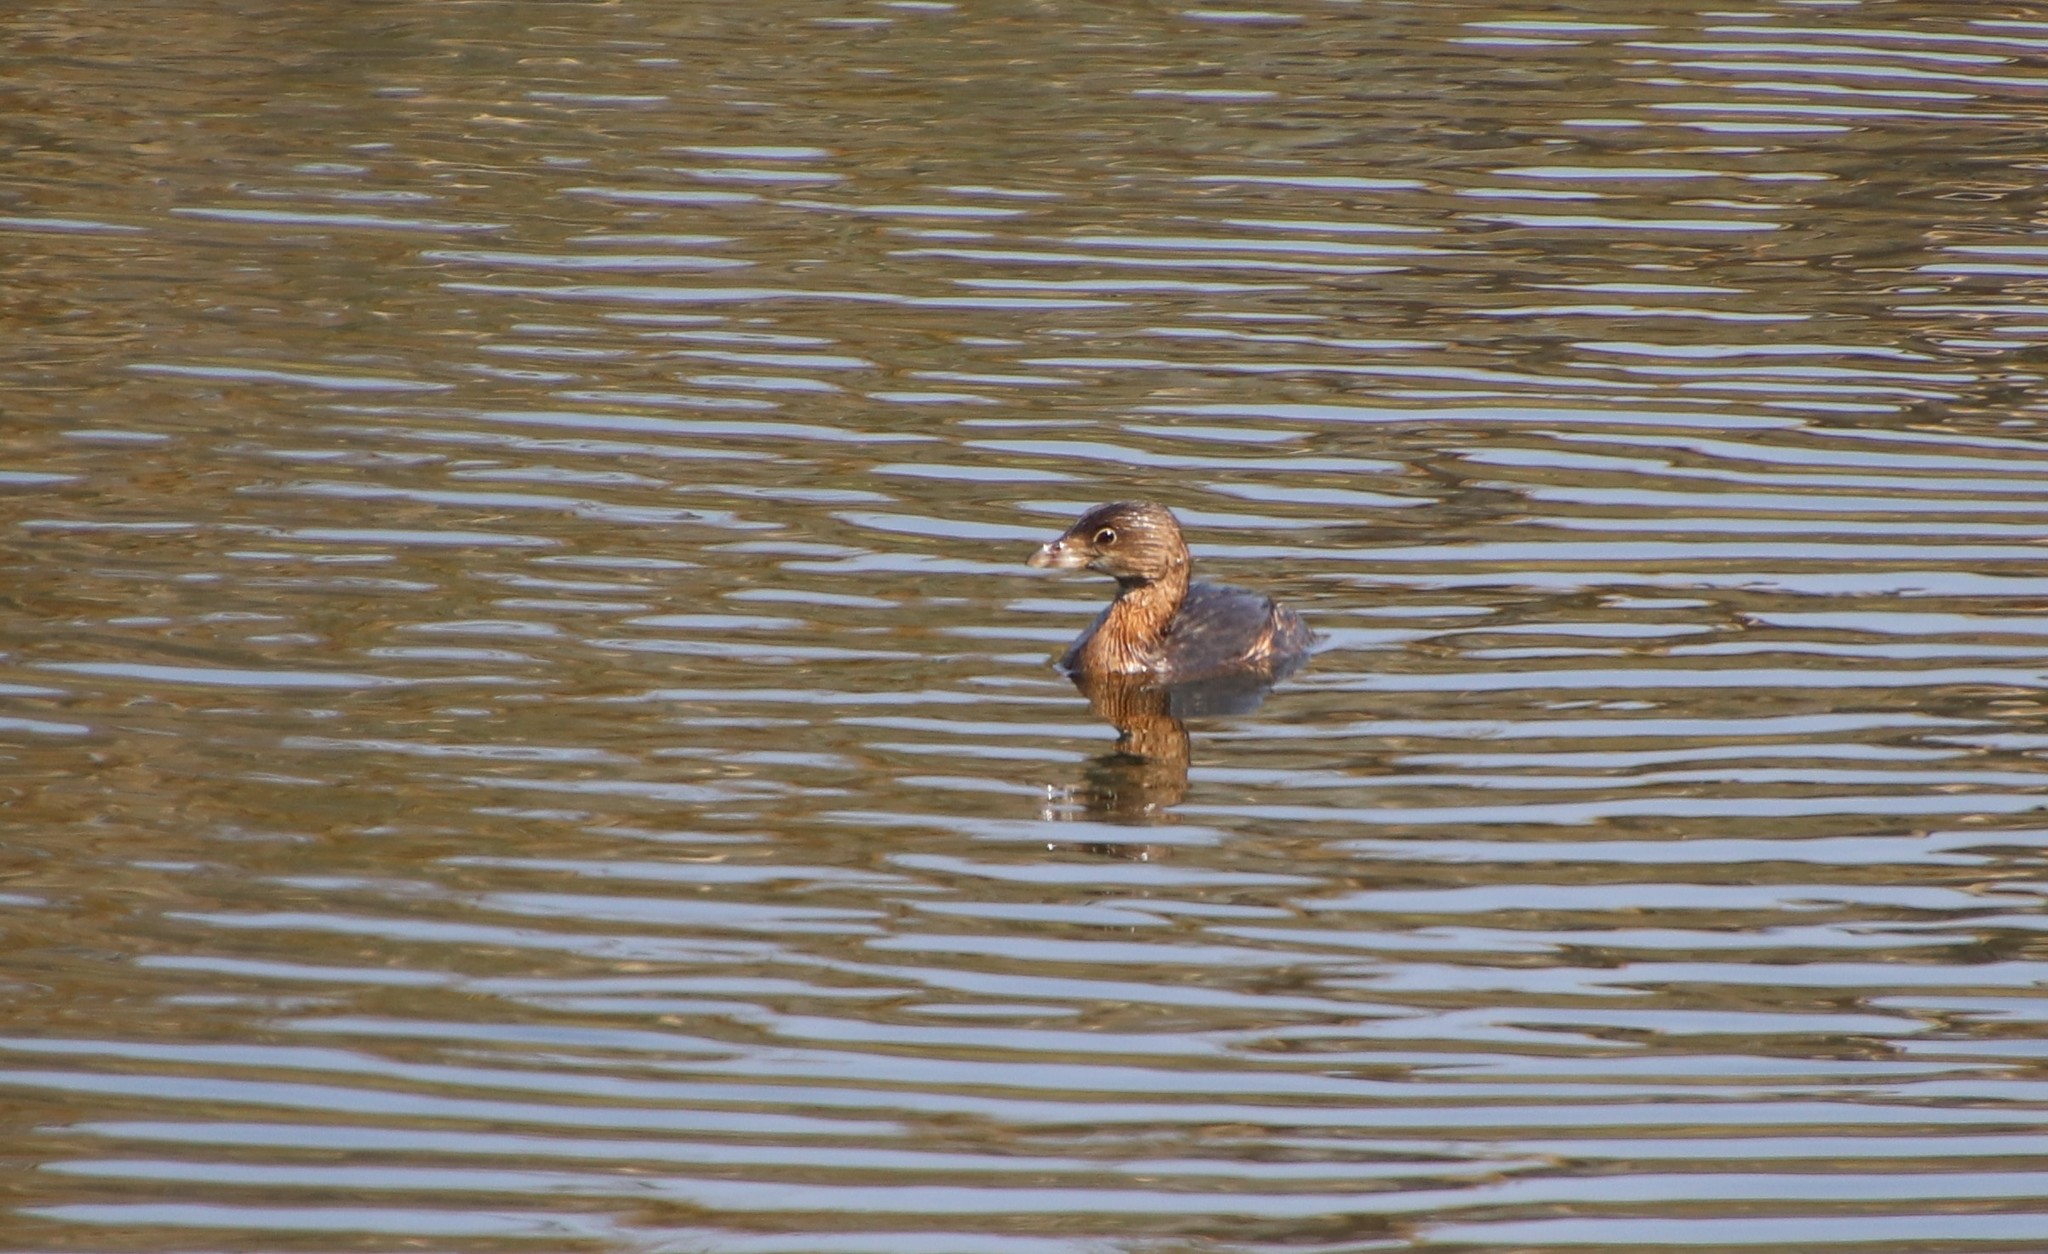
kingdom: Animalia
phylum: Chordata
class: Aves
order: Podicipediformes
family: Podicipedidae
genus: Podilymbus
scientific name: Podilymbus podiceps
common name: Pied-billed grebe
